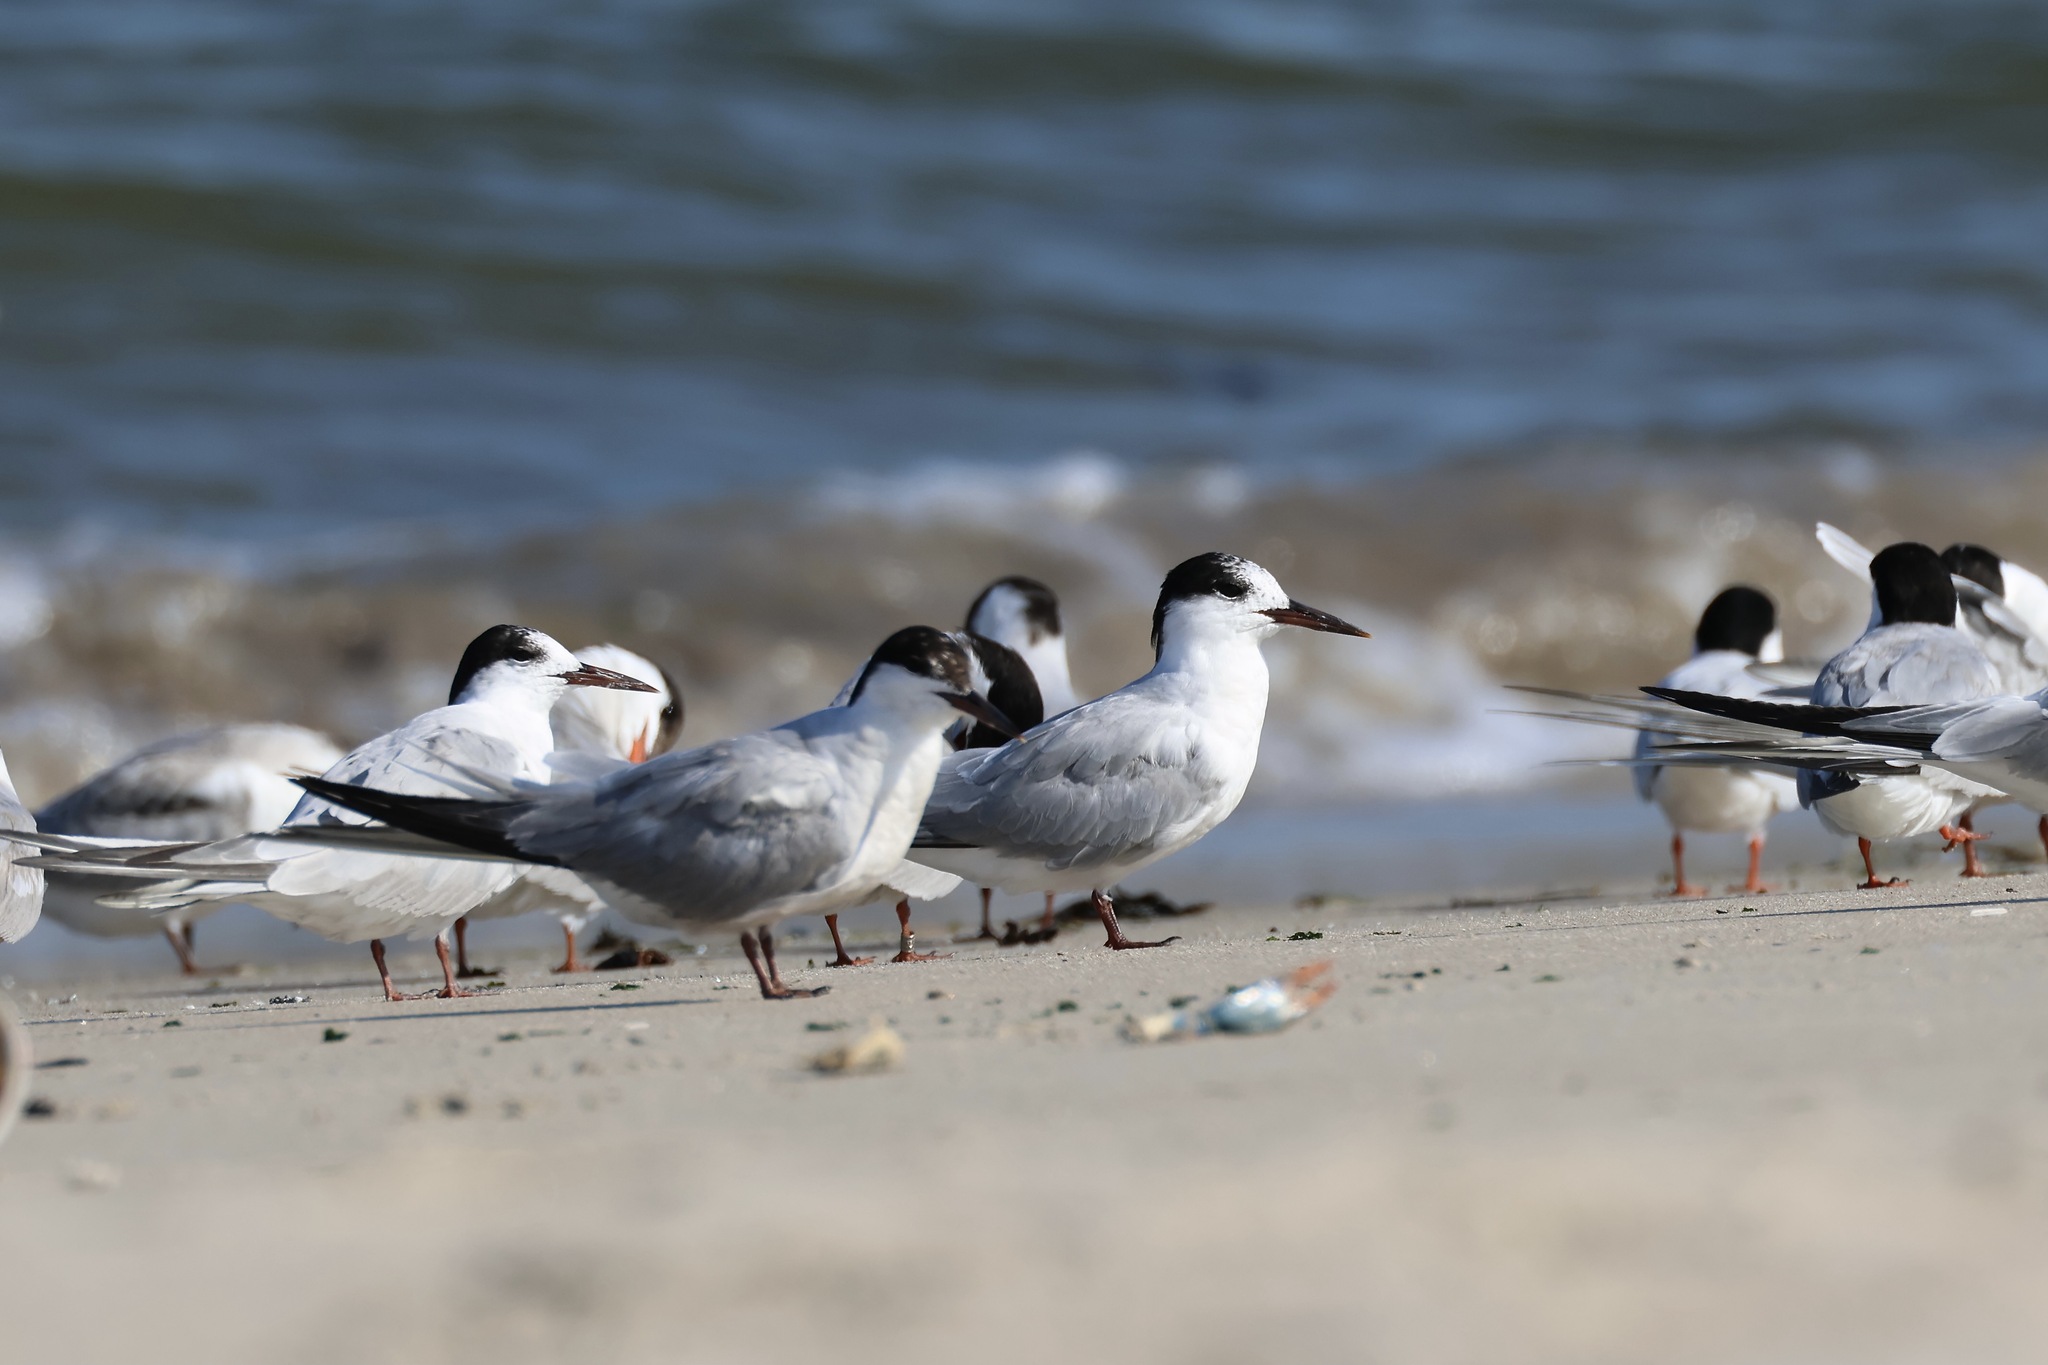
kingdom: Animalia
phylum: Chordata
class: Aves
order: Charadriiformes
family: Laridae
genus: Sterna
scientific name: Sterna hirundo
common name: Common tern
